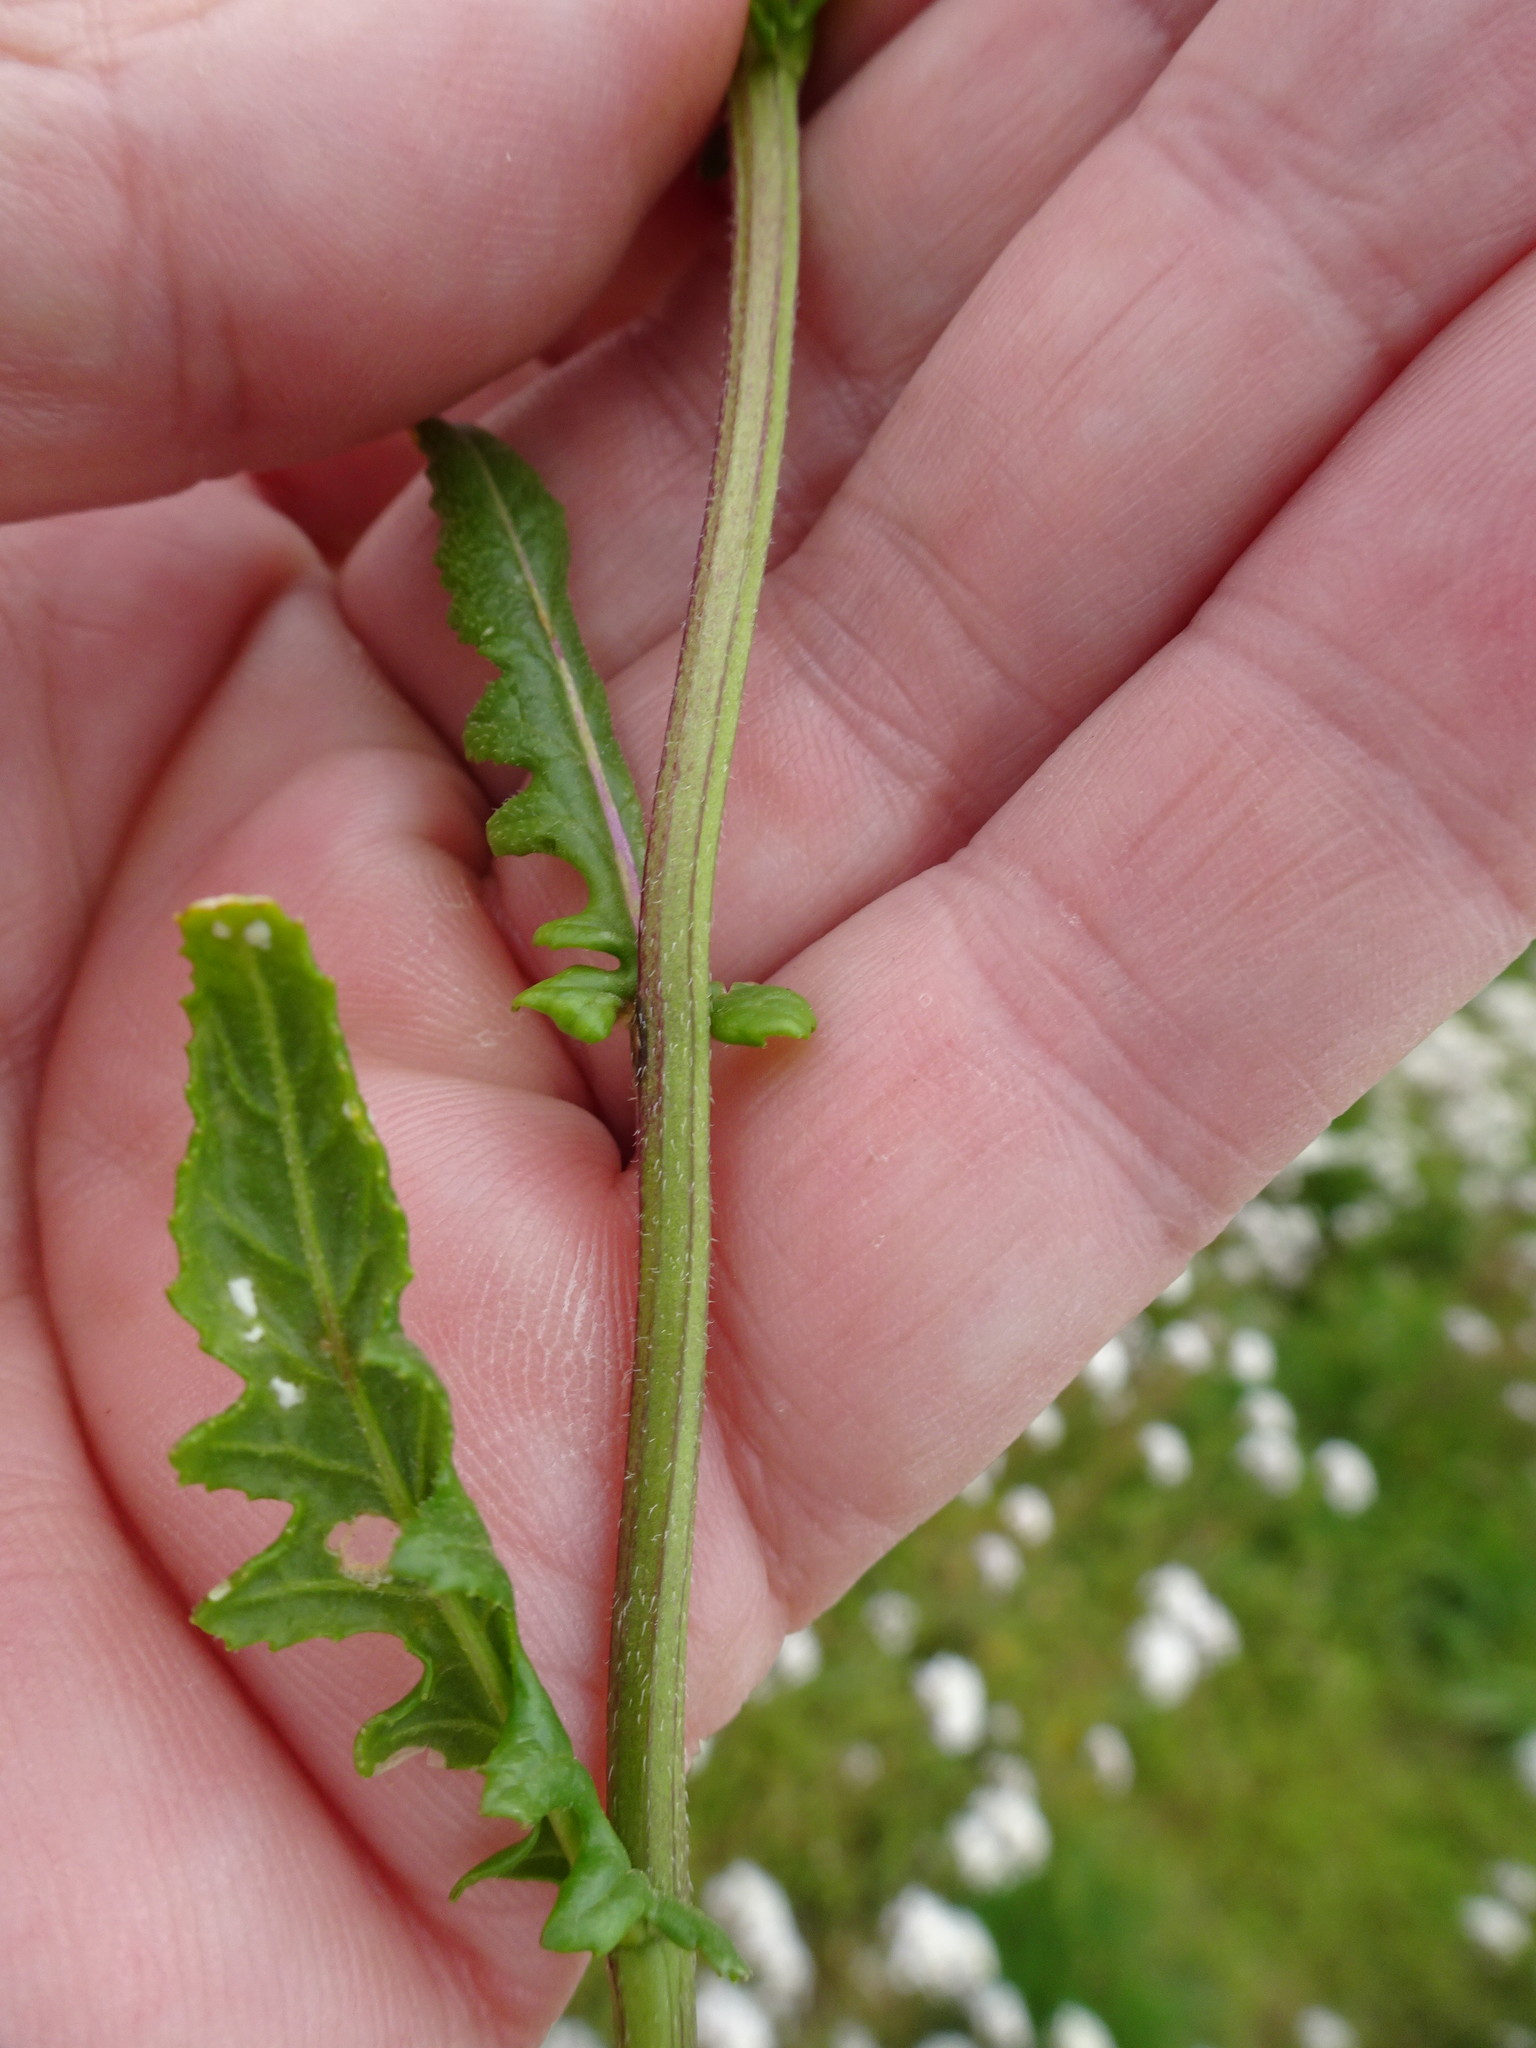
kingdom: Plantae
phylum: Tracheophyta
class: Magnoliopsida
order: Brassicales
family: Brassicaceae
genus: Diplotaxis
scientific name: Diplotaxis erucoides
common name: White rocket
